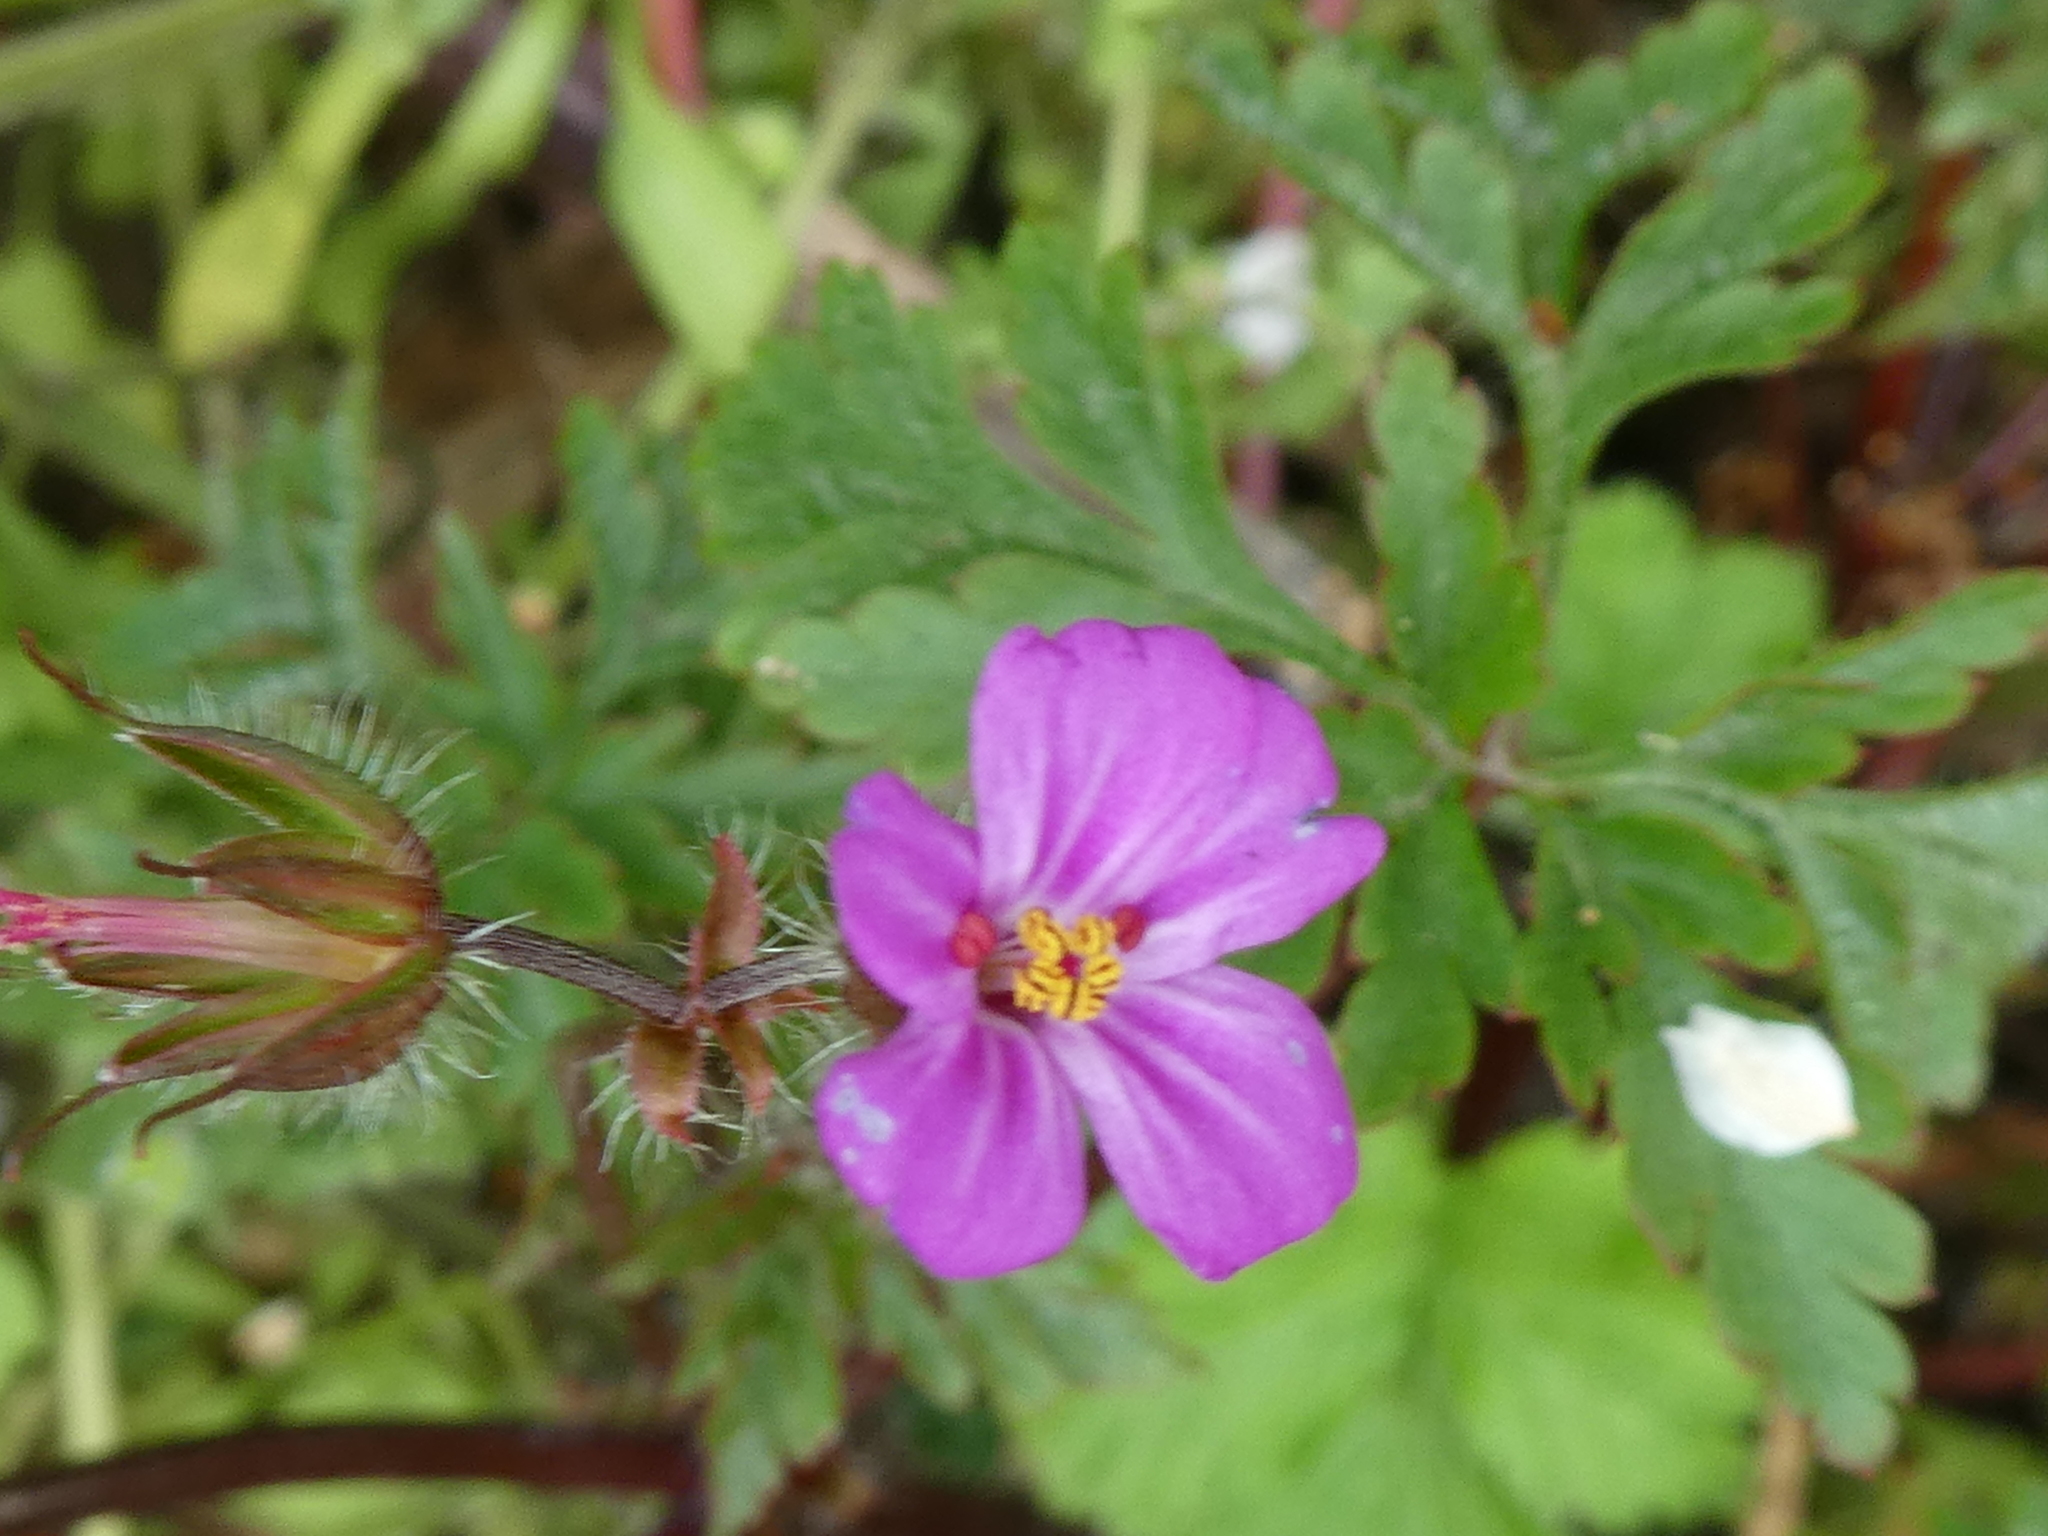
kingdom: Plantae
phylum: Tracheophyta
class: Magnoliopsida
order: Geraniales
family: Geraniaceae
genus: Geranium
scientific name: Geranium robertianum
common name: Herb-robert
